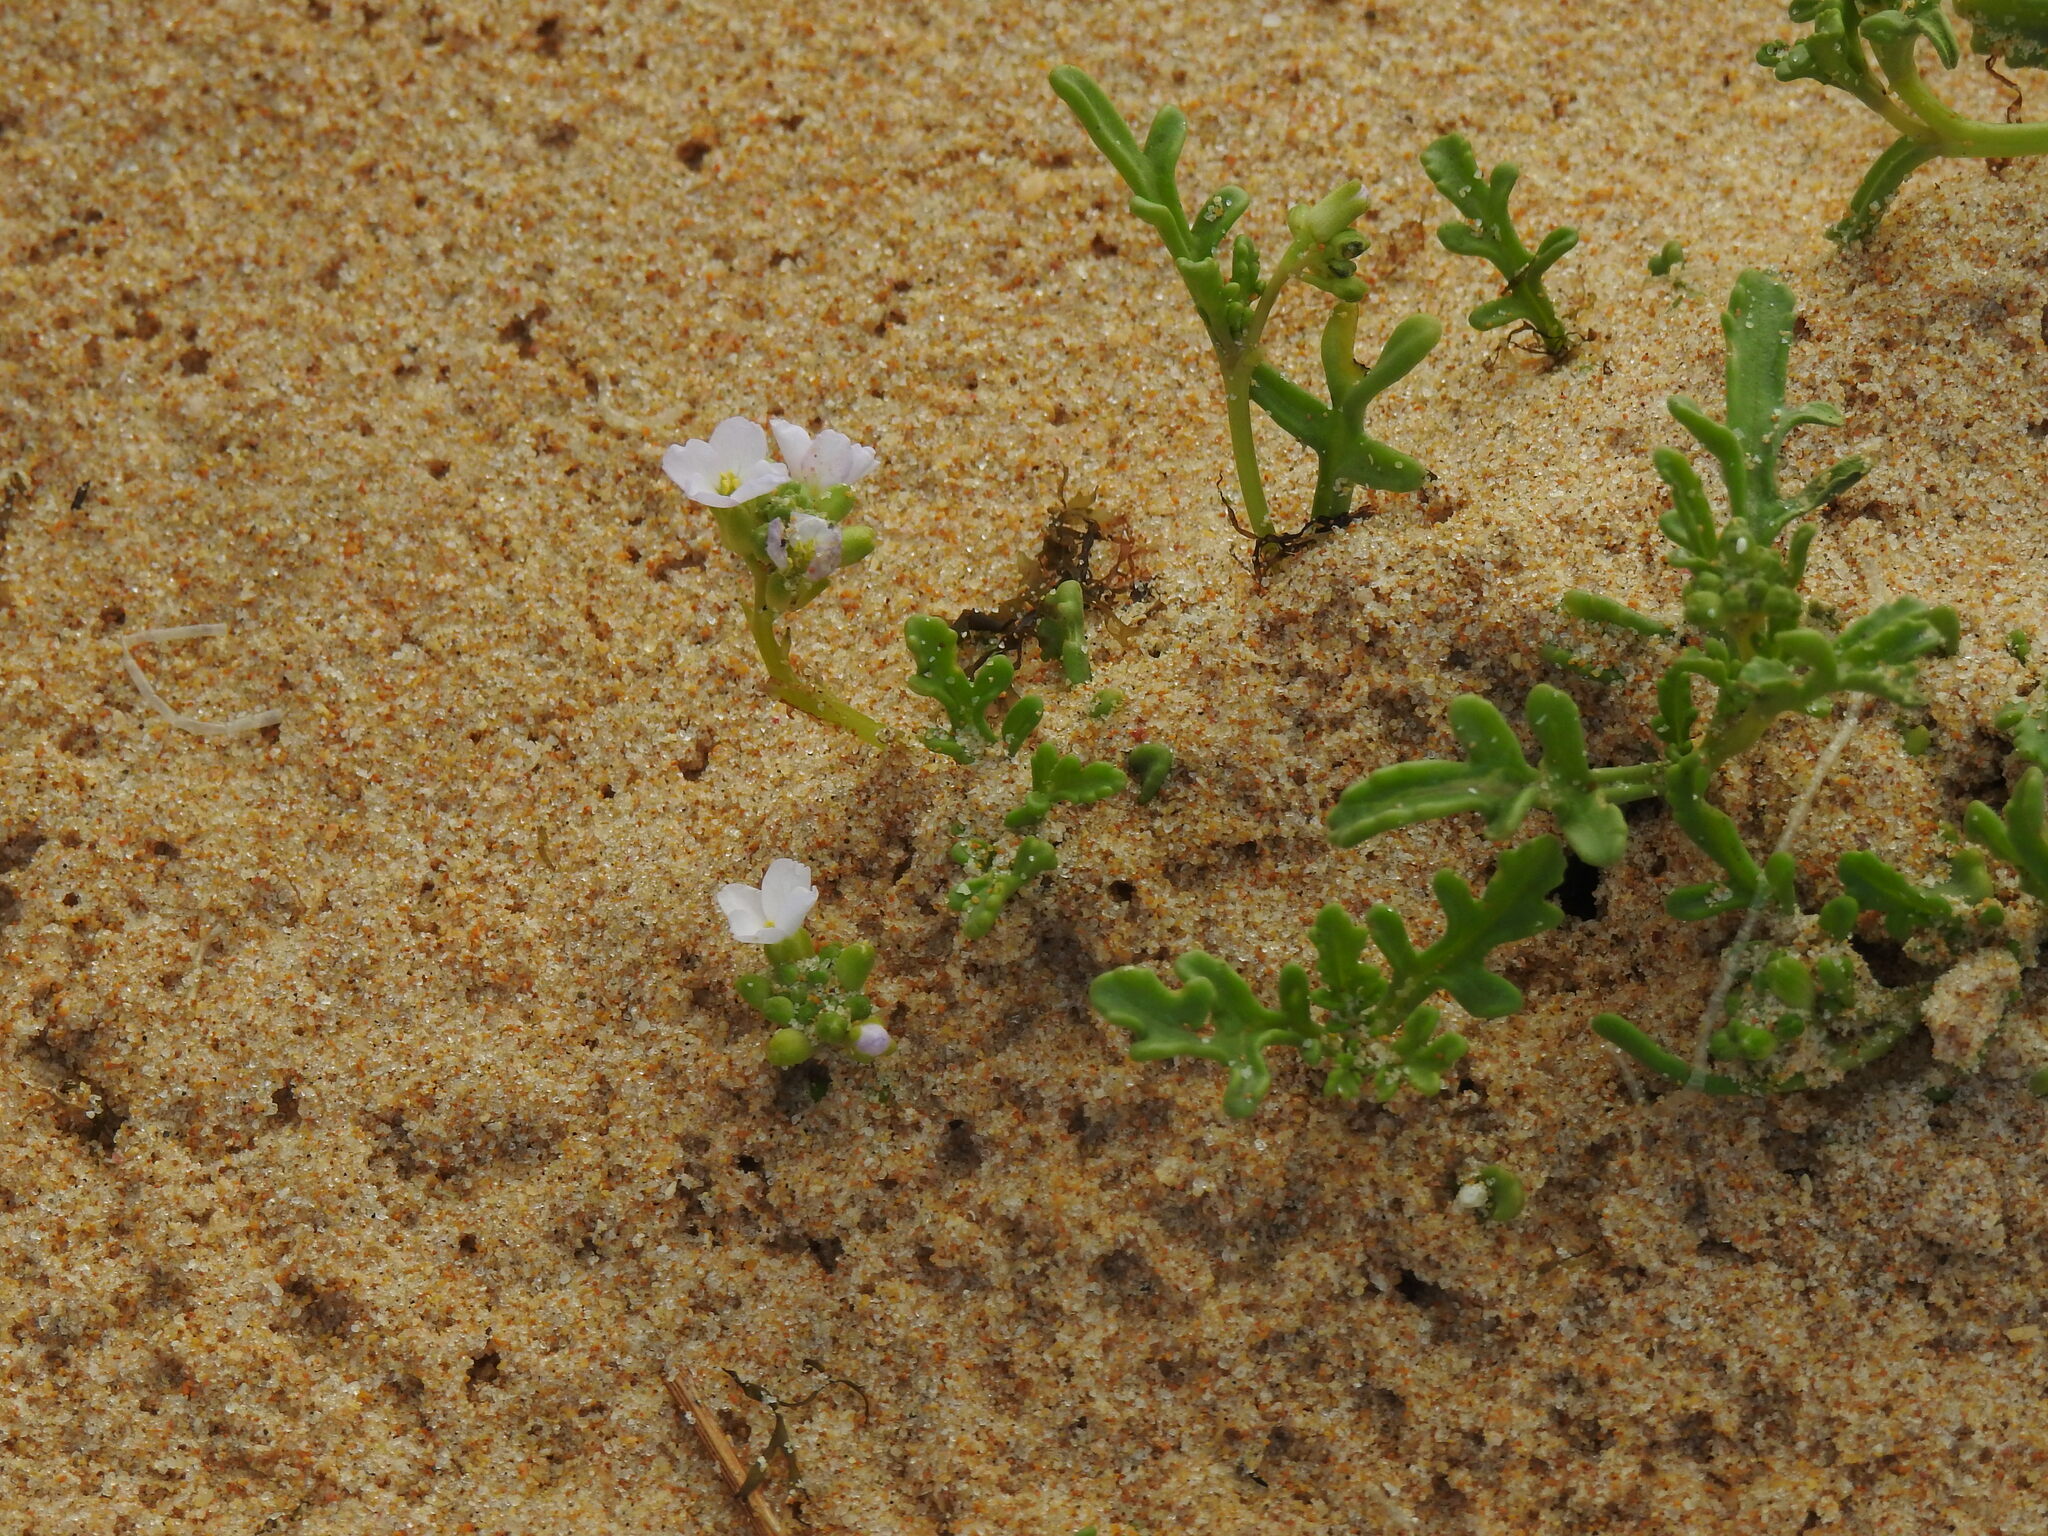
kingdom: Plantae
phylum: Tracheophyta
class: Magnoliopsida
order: Brassicales
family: Brassicaceae
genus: Cakile
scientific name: Cakile maritima
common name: Sea rocket
